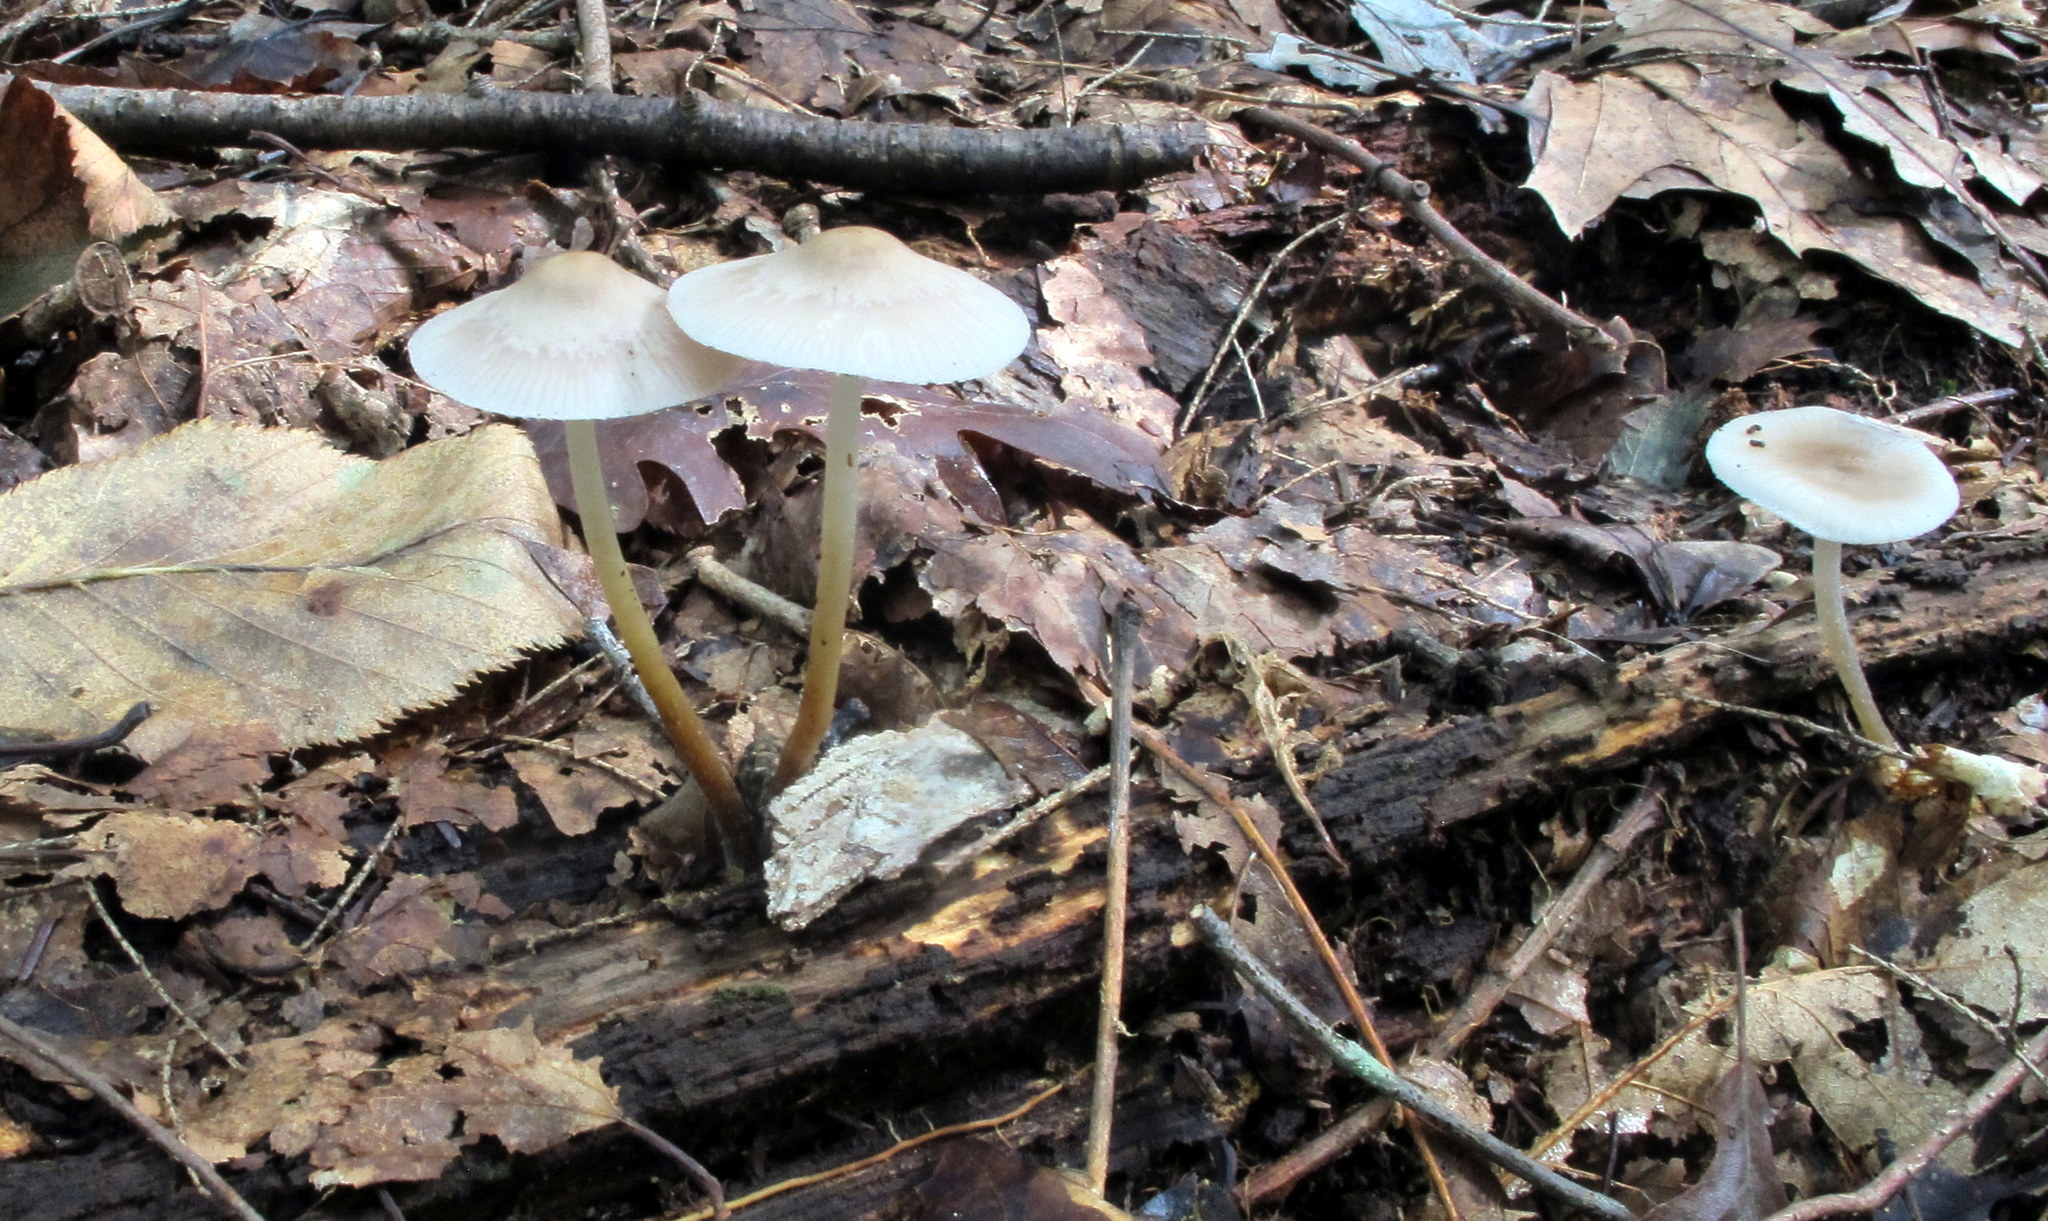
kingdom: Fungi
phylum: Basidiomycota
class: Agaricomycetes
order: Agaricales
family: Mycenaceae
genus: Mycena
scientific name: Mycena inclinata
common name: Clustered bonnet
